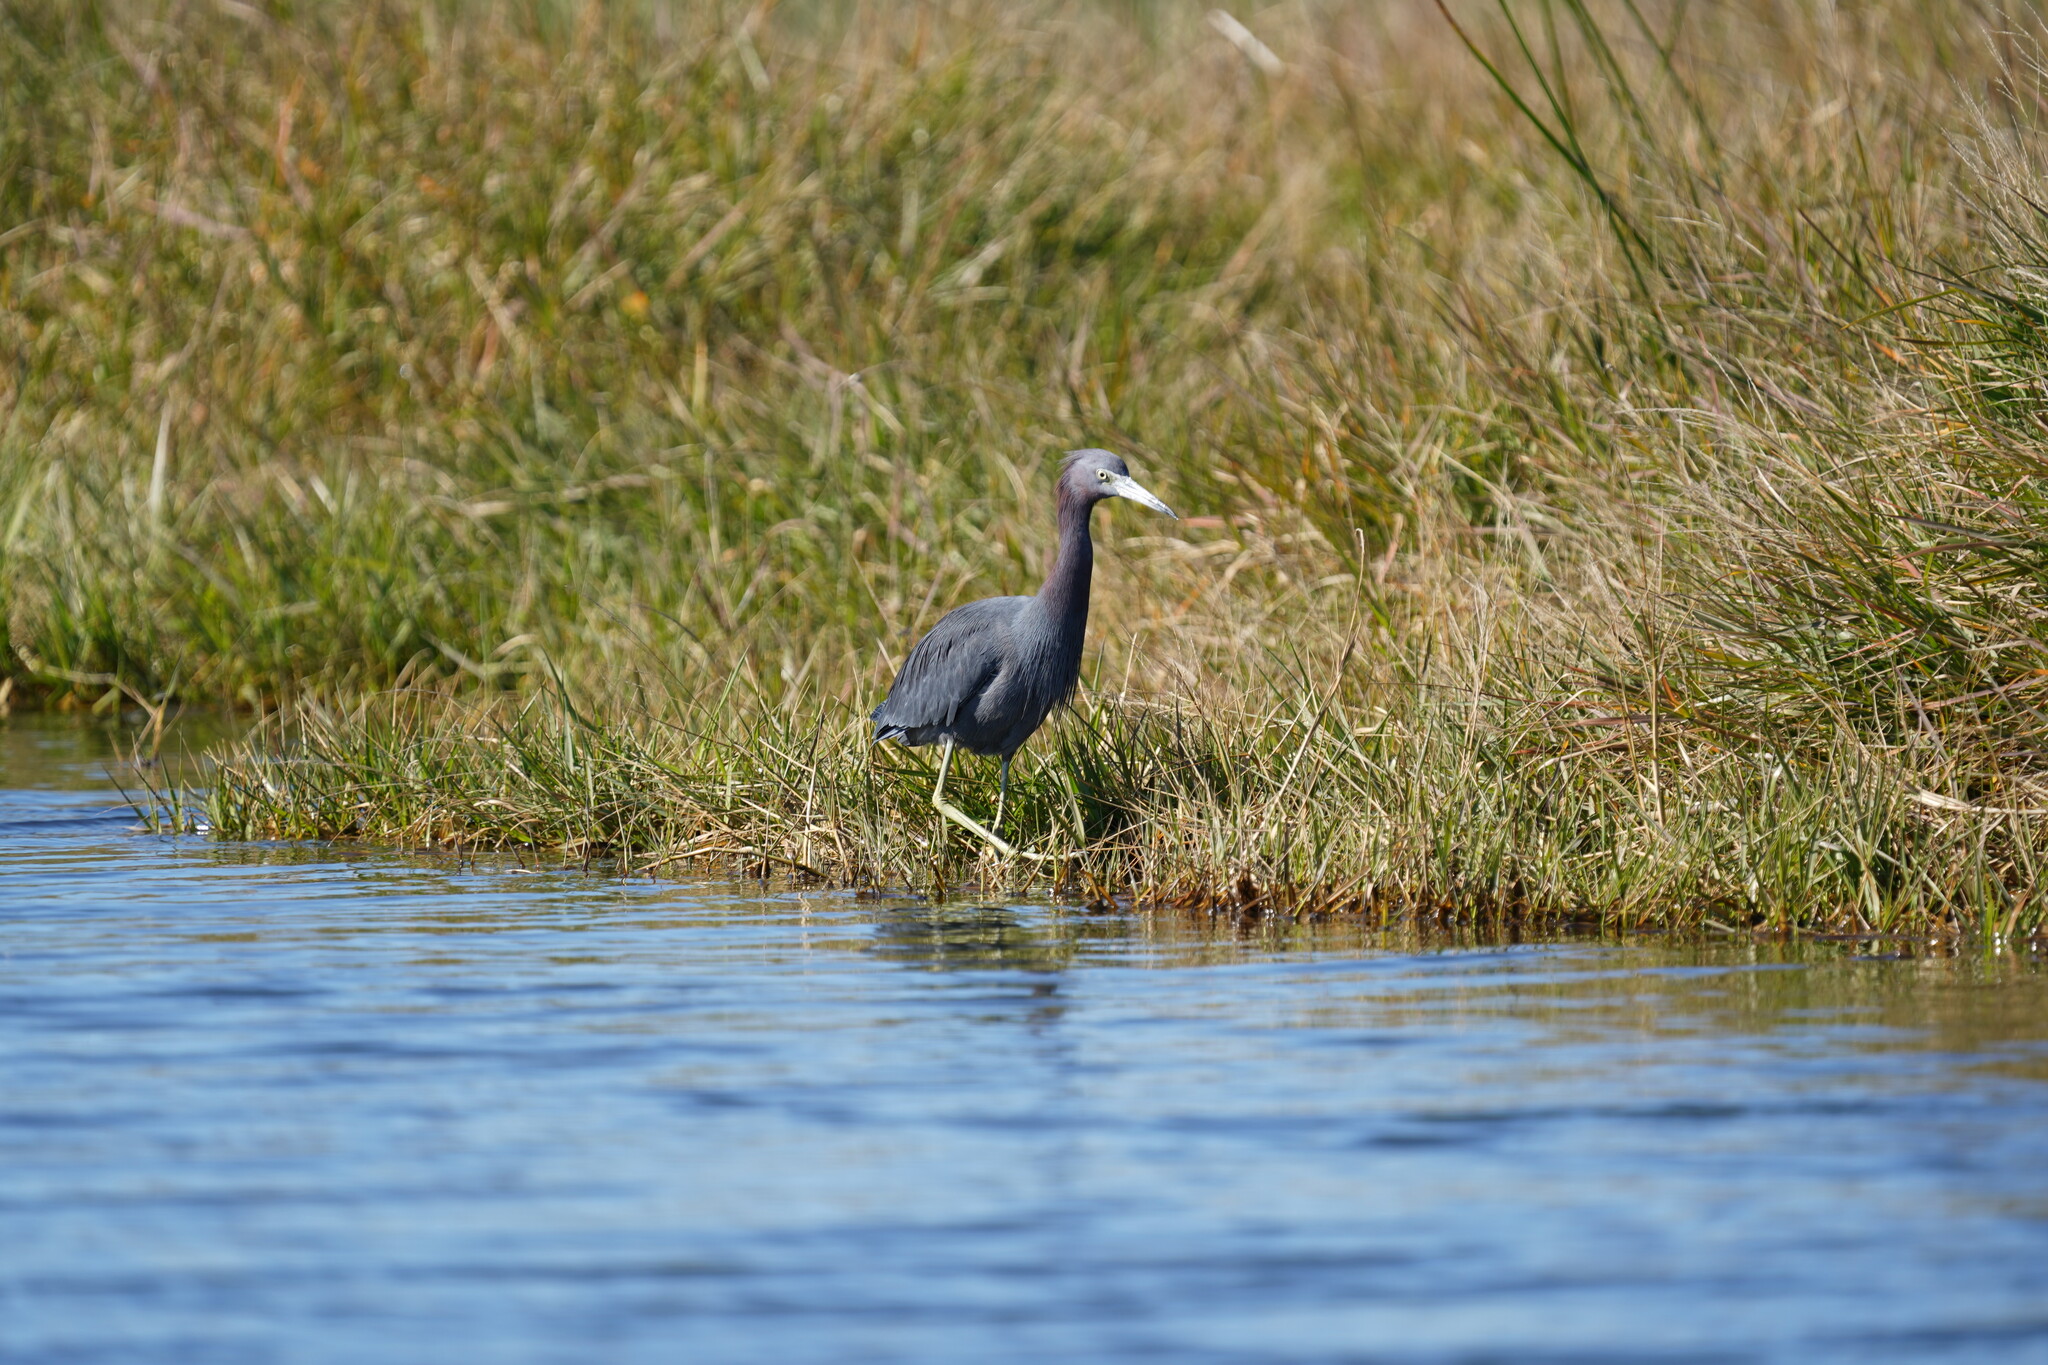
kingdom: Animalia
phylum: Chordata
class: Aves
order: Pelecaniformes
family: Ardeidae
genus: Egretta
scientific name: Egretta caerulea
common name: Little blue heron
